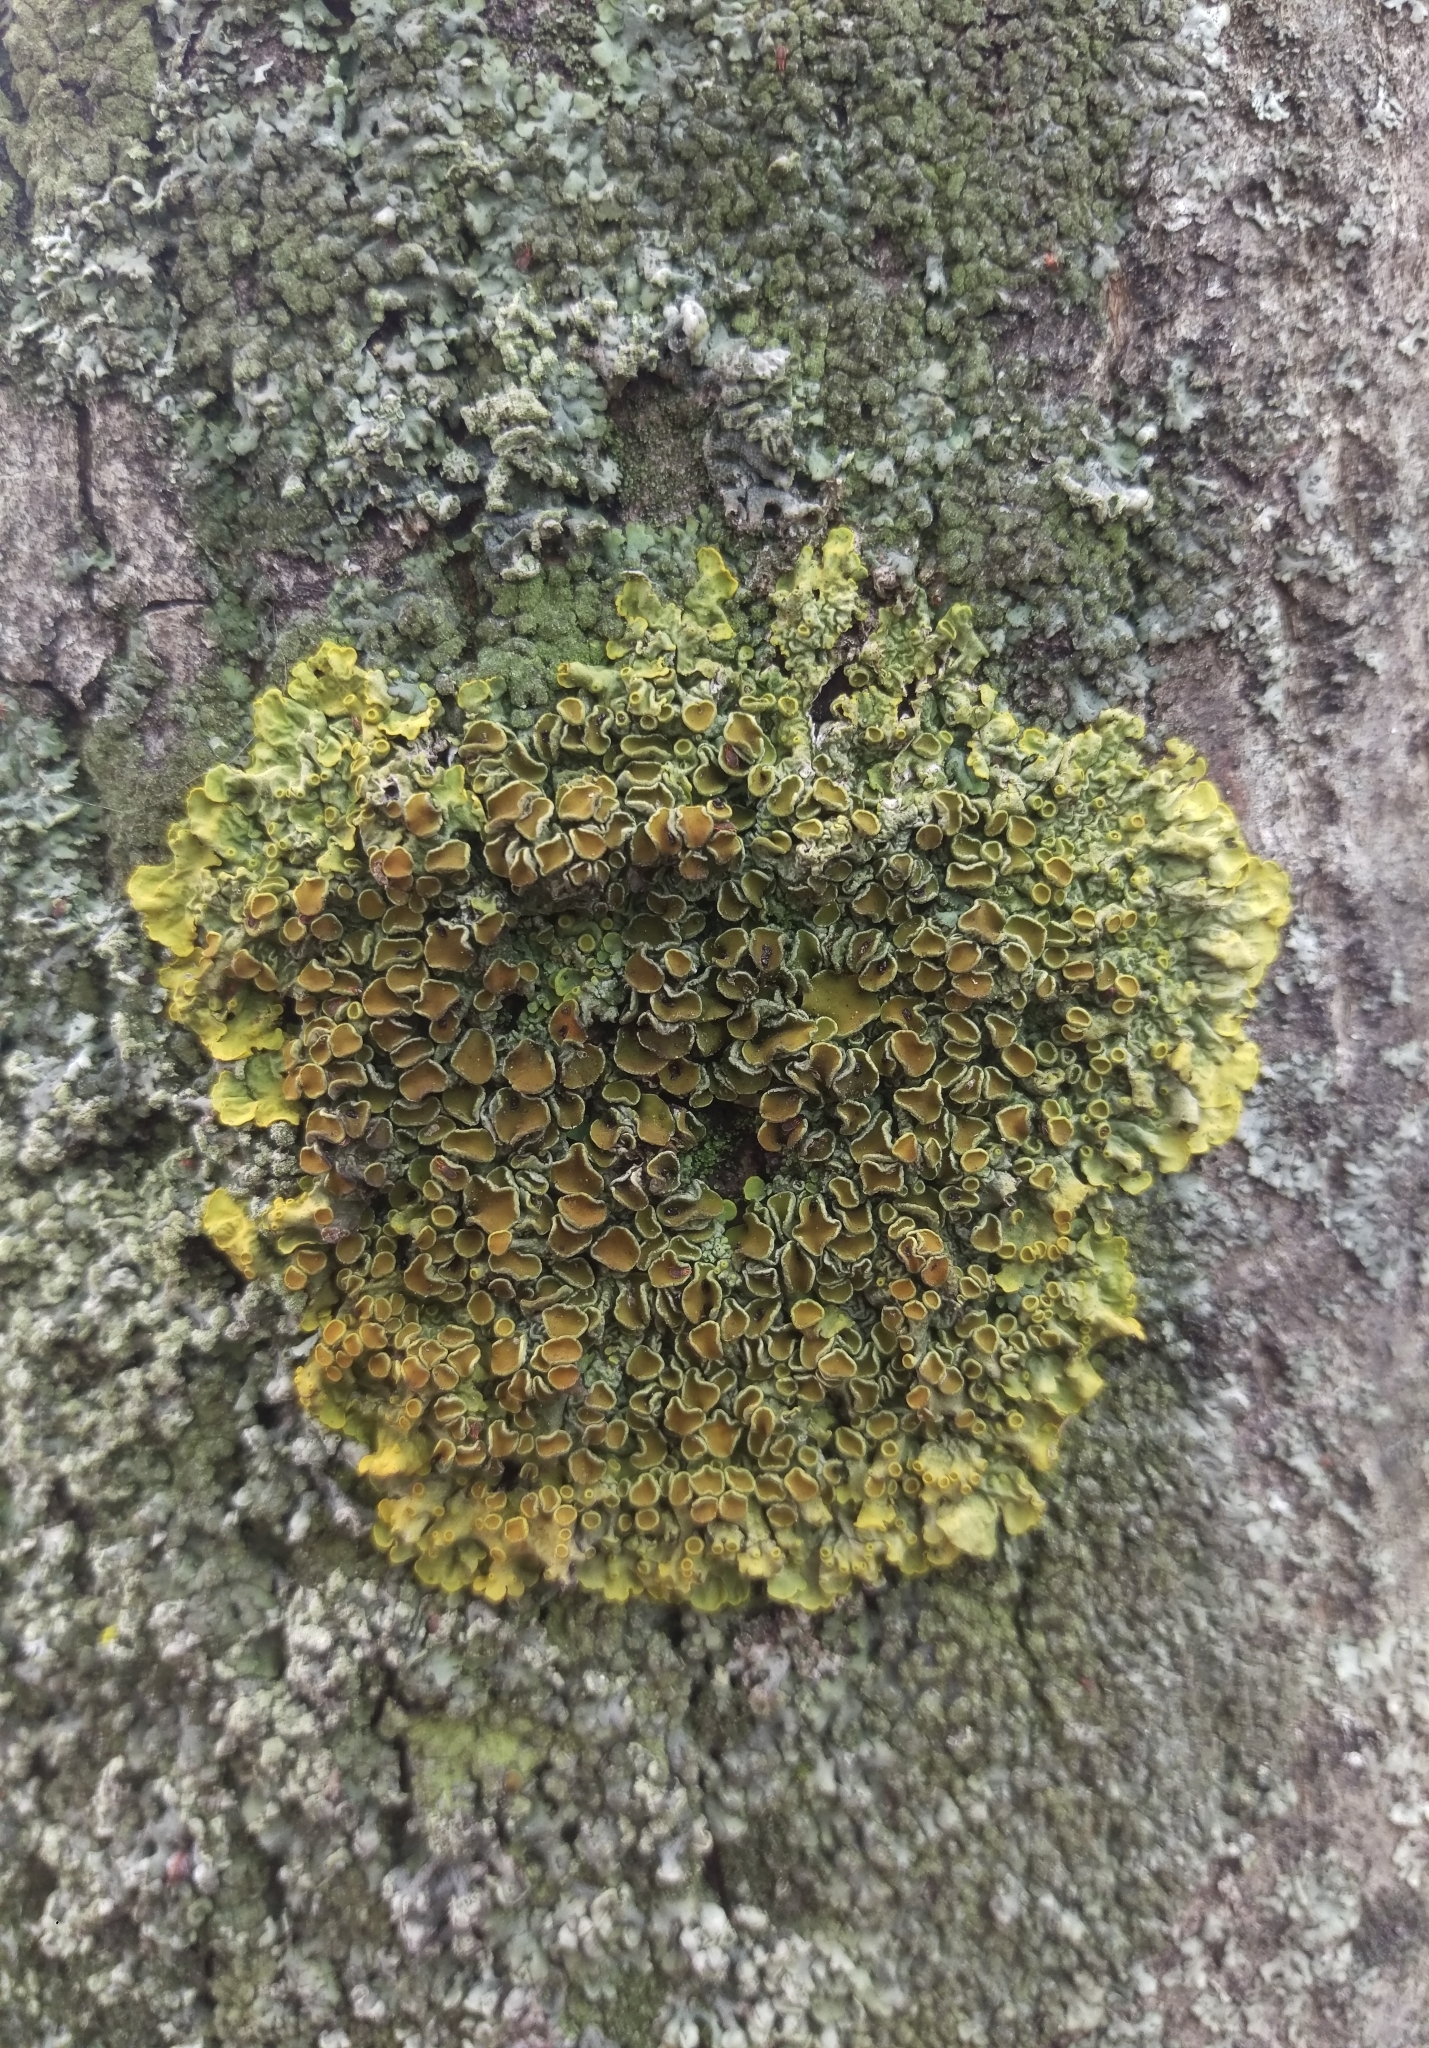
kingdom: Fungi
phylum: Ascomycota
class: Lecanoromycetes
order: Teloschistales
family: Teloschistaceae
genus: Xanthoria
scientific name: Xanthoria parietina
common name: Common orange lichen
